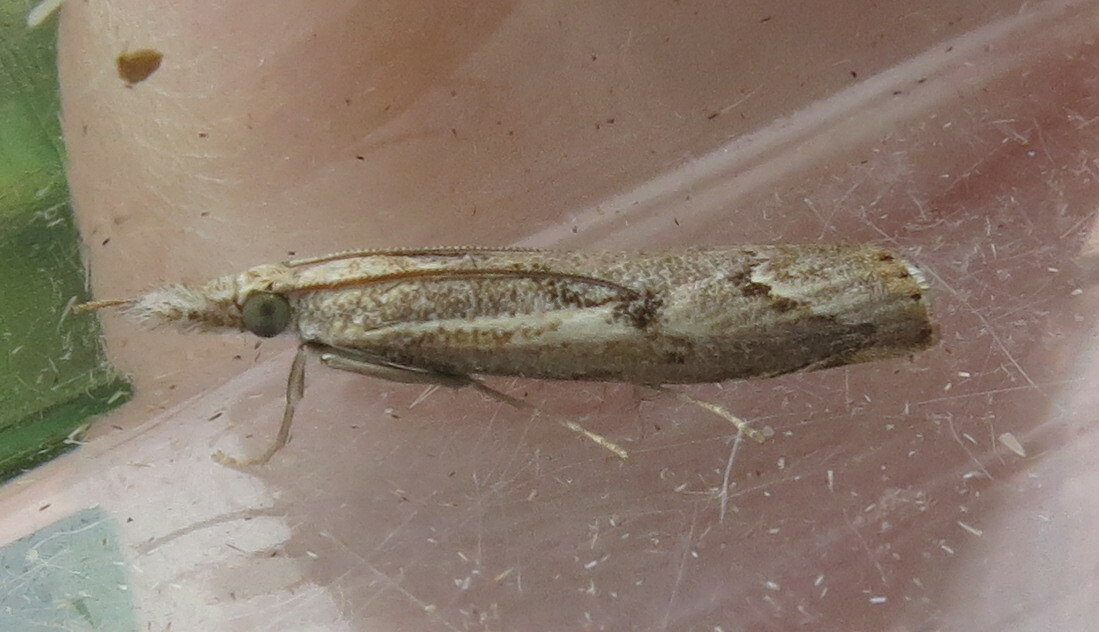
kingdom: Animalia
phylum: Arthropoda
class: Insecta
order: Lepidoptera
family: Crambidae
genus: Agriphila
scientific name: Agriphila geniculea
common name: Elbow-stripe grass-veneer
